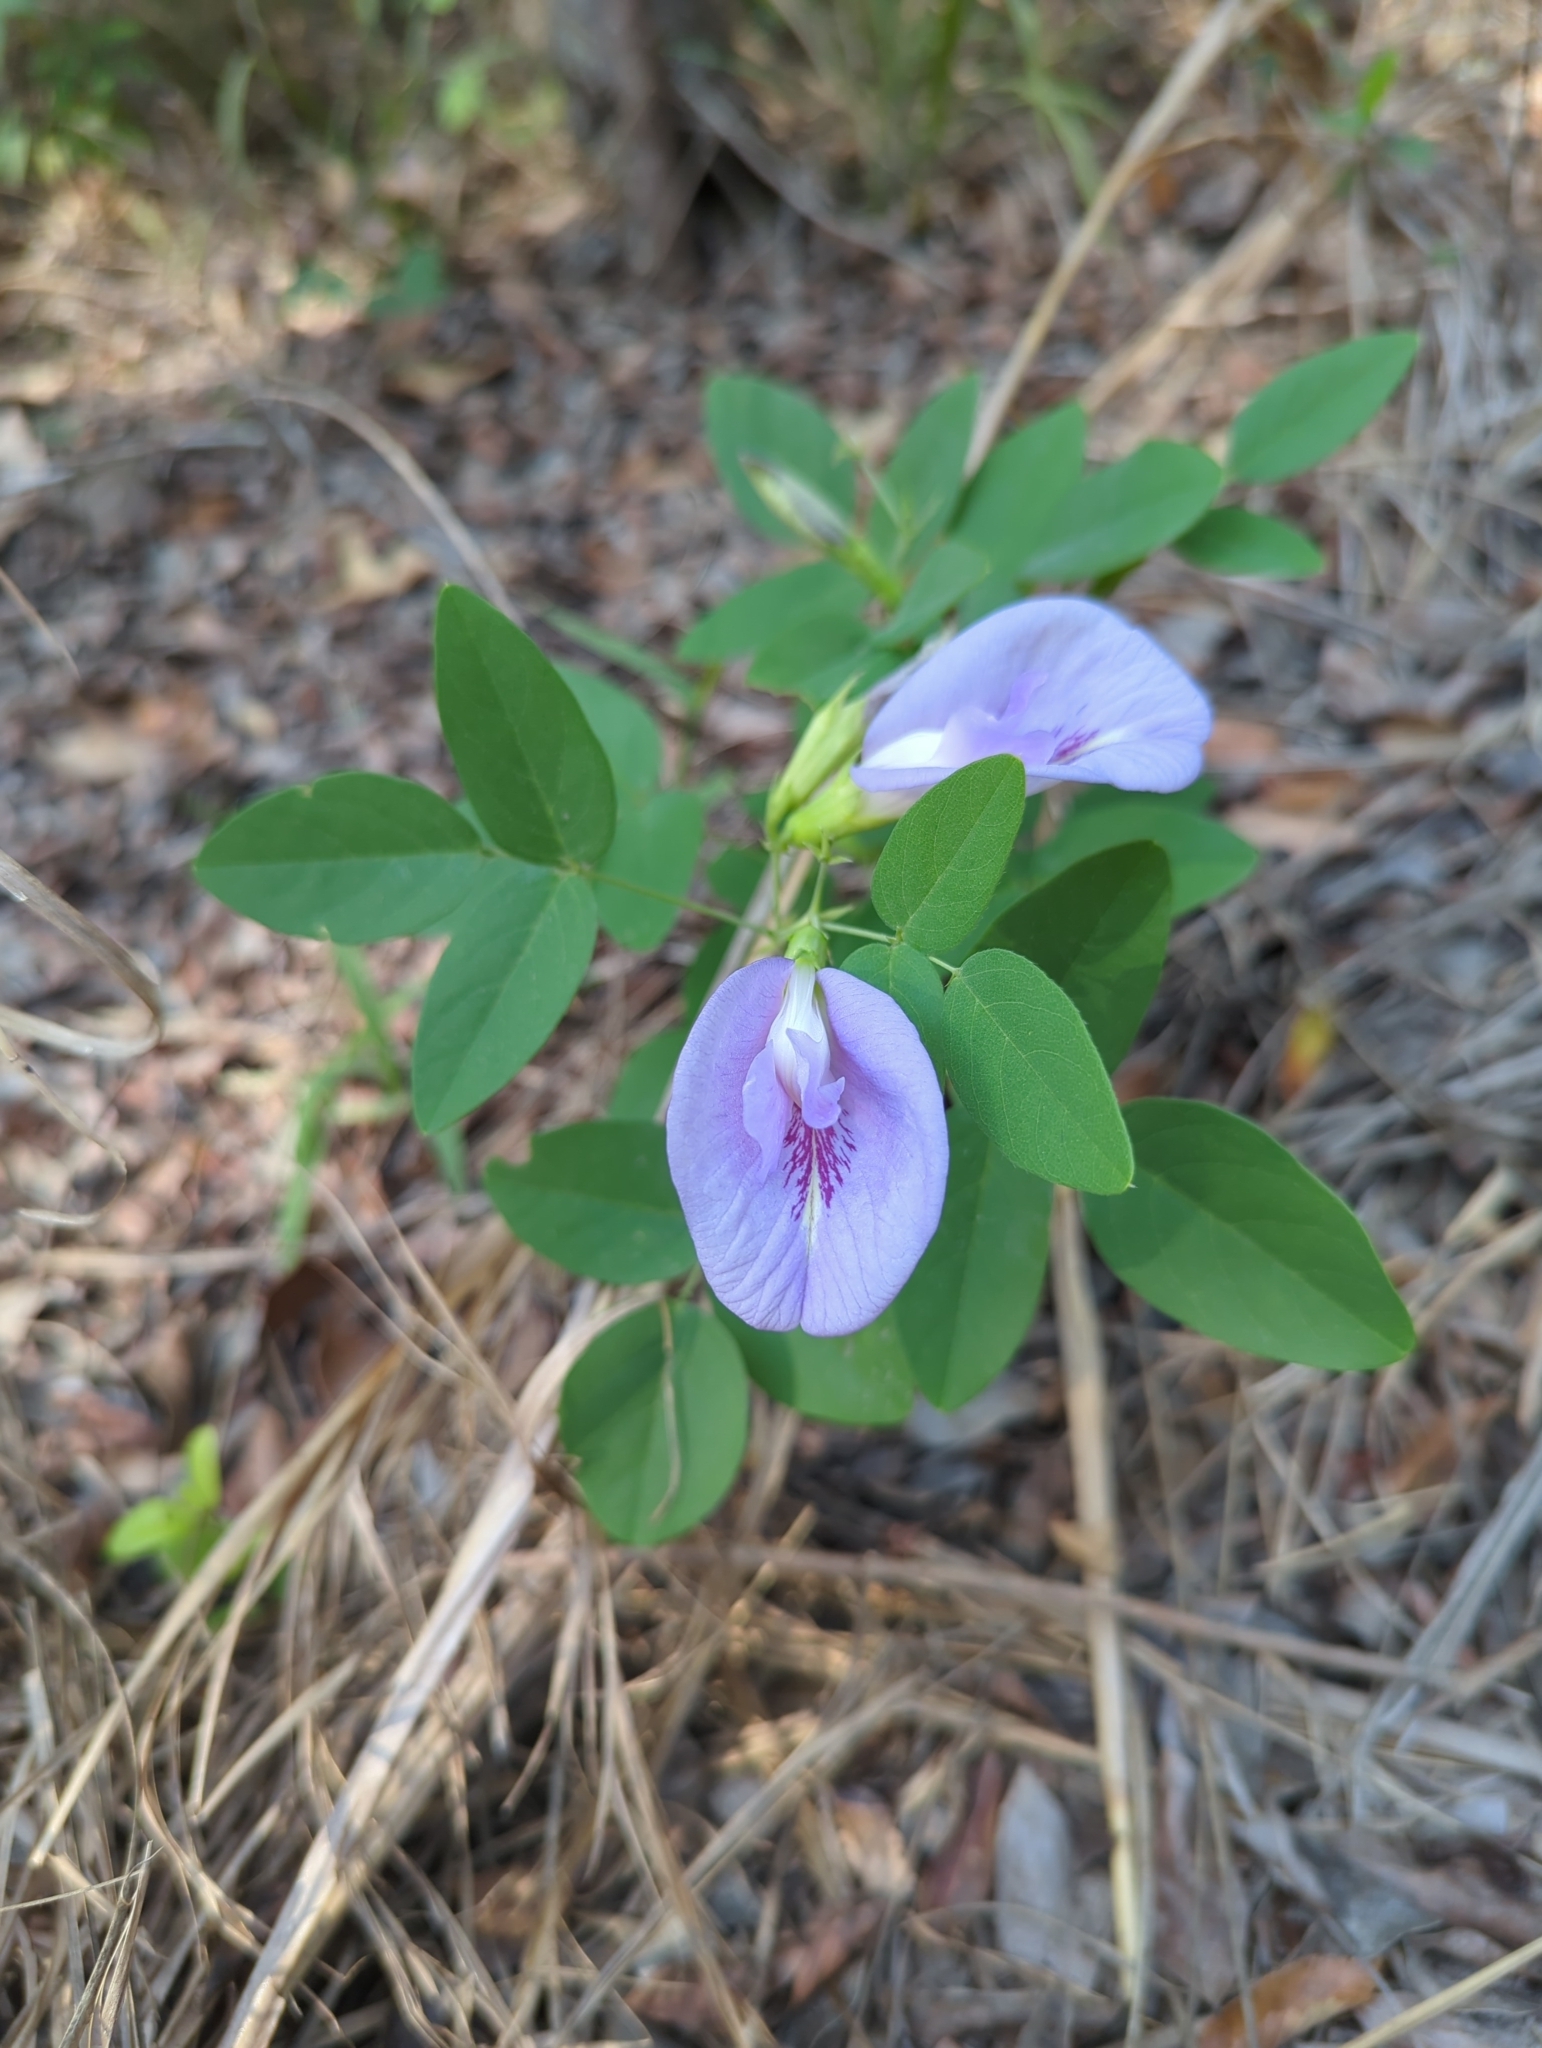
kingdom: Plantae
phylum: Tracheophyta
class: Magnoliopsida
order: Fabales
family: Fabaceae
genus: Centrosema
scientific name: Centrosema virginianum
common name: Butterfly-pea
